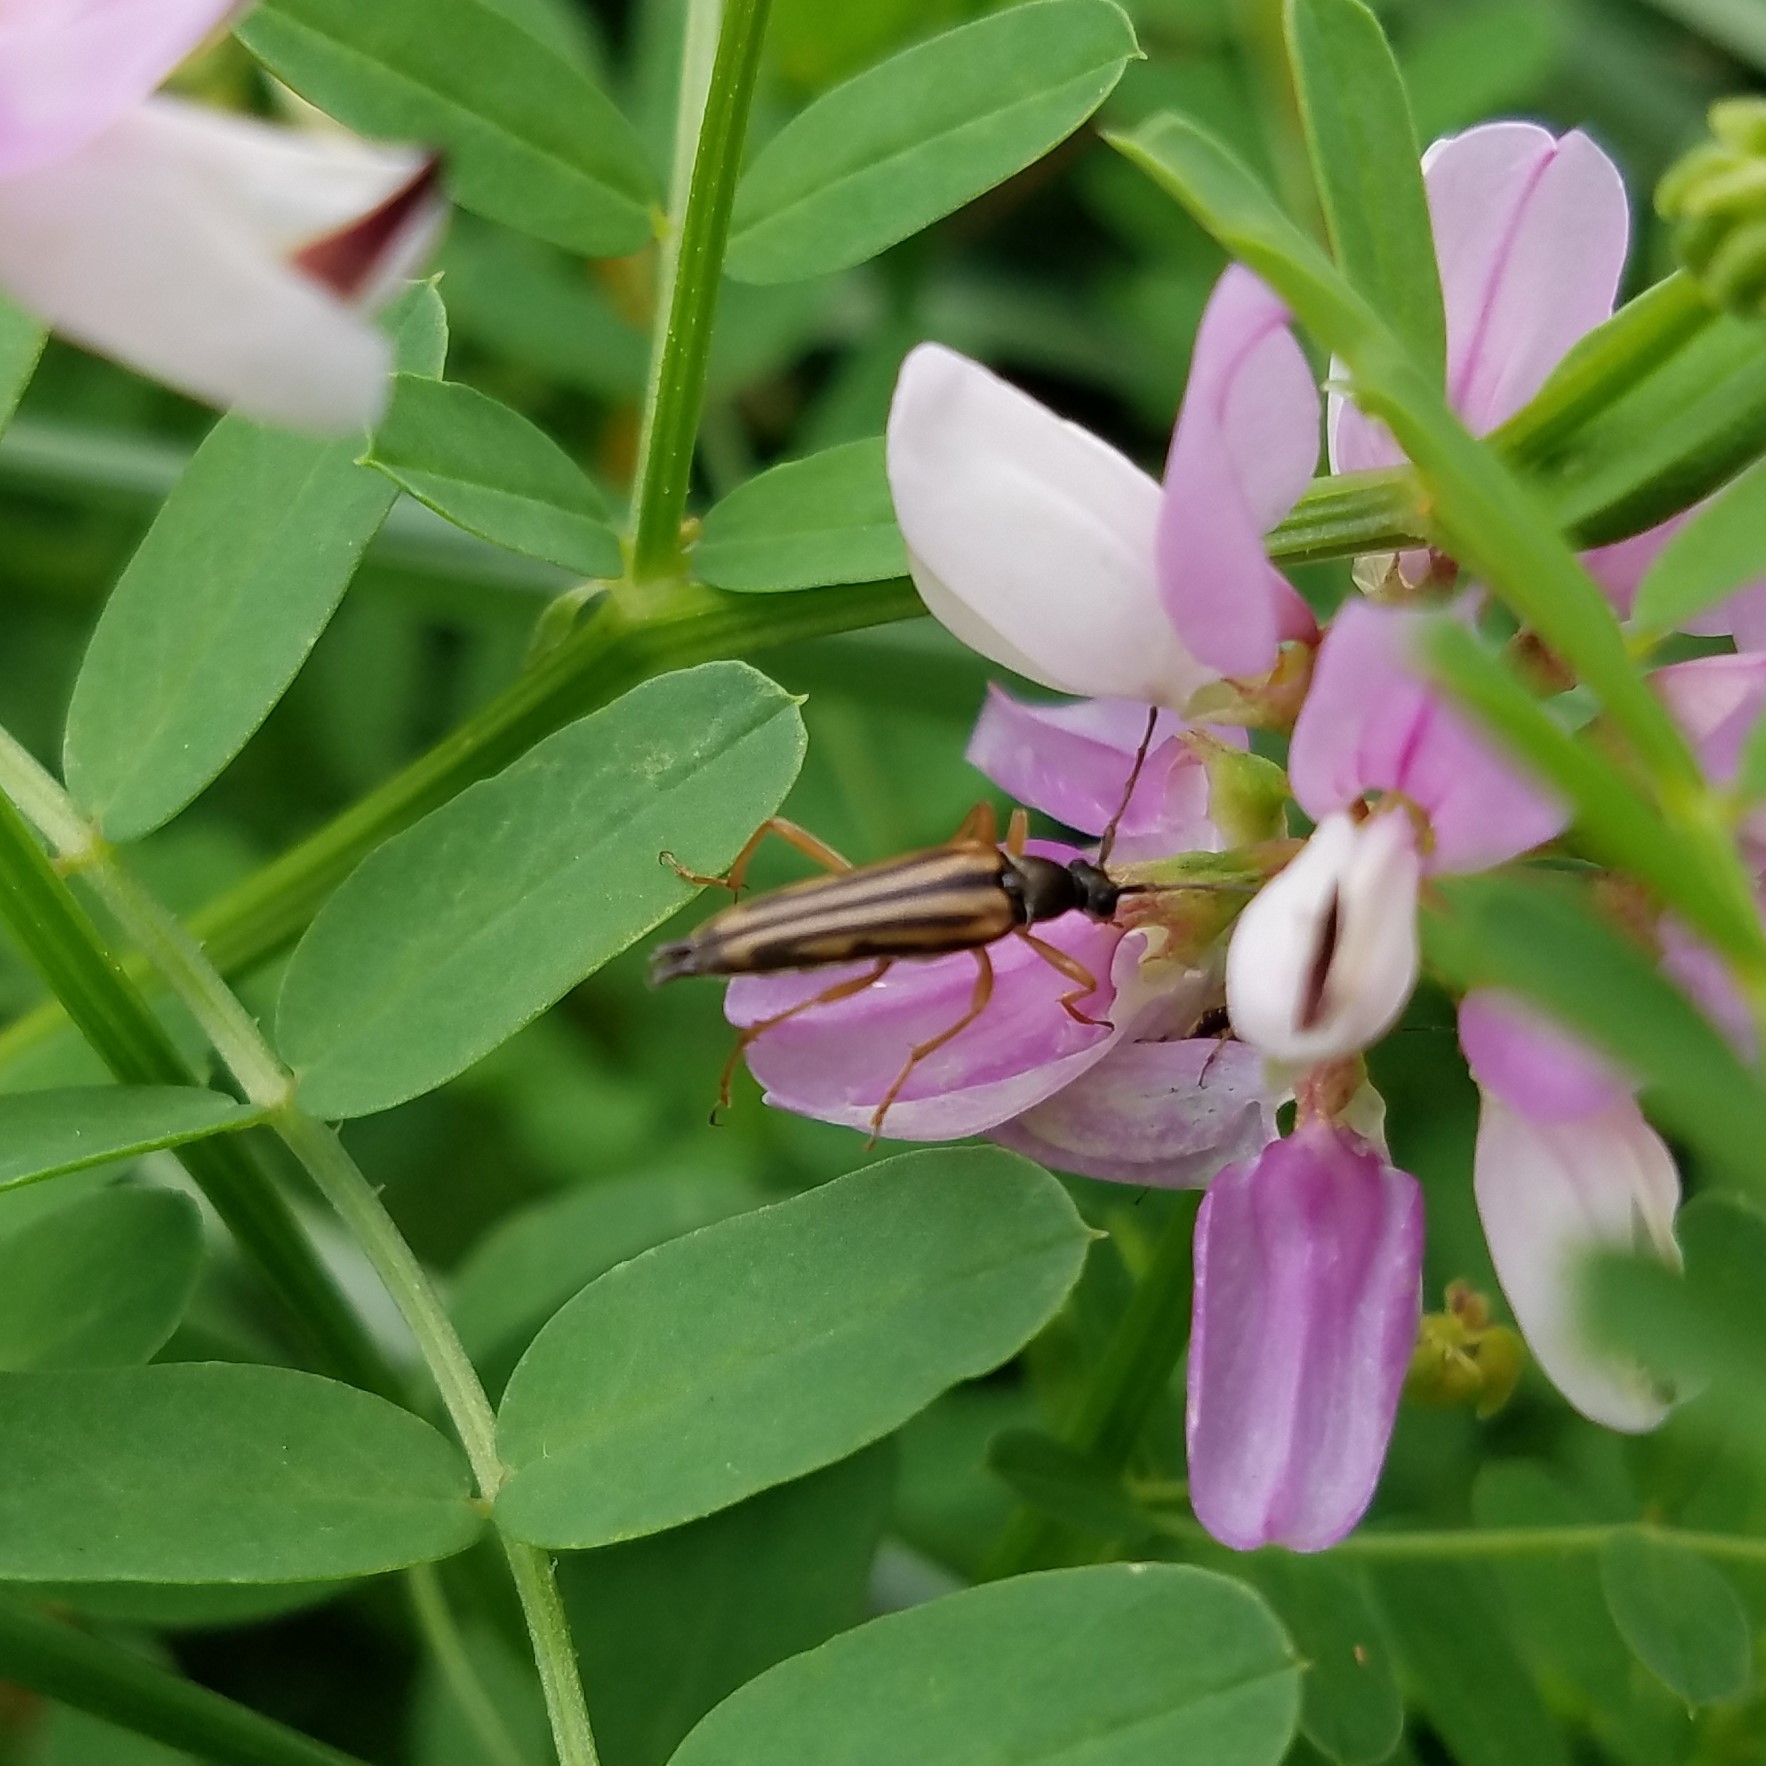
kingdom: Animalia
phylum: Arthropoda
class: Insecta
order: Coleoptera
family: Cerambycidae
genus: Analeptura
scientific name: Analeptura lineola
